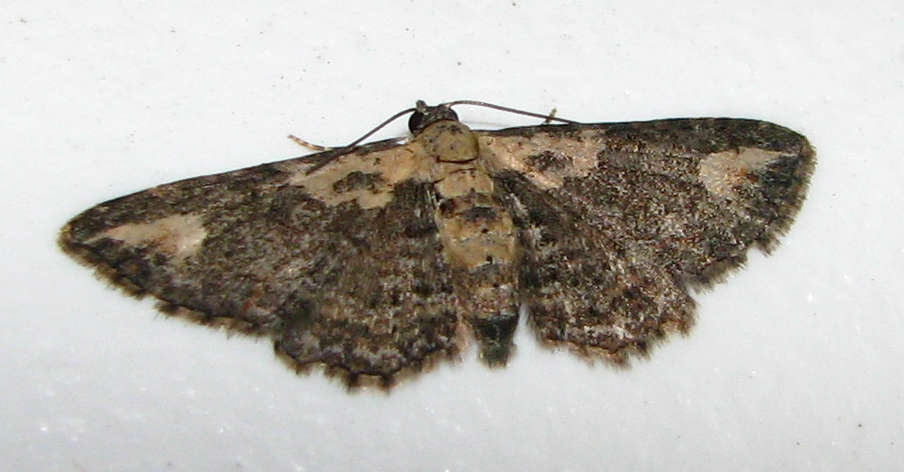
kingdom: Animalia
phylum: Arthropoda
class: Insecta
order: Lepidoptera
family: Geometridae
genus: Pasiphilodes
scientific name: Pasiphilodes testulata
